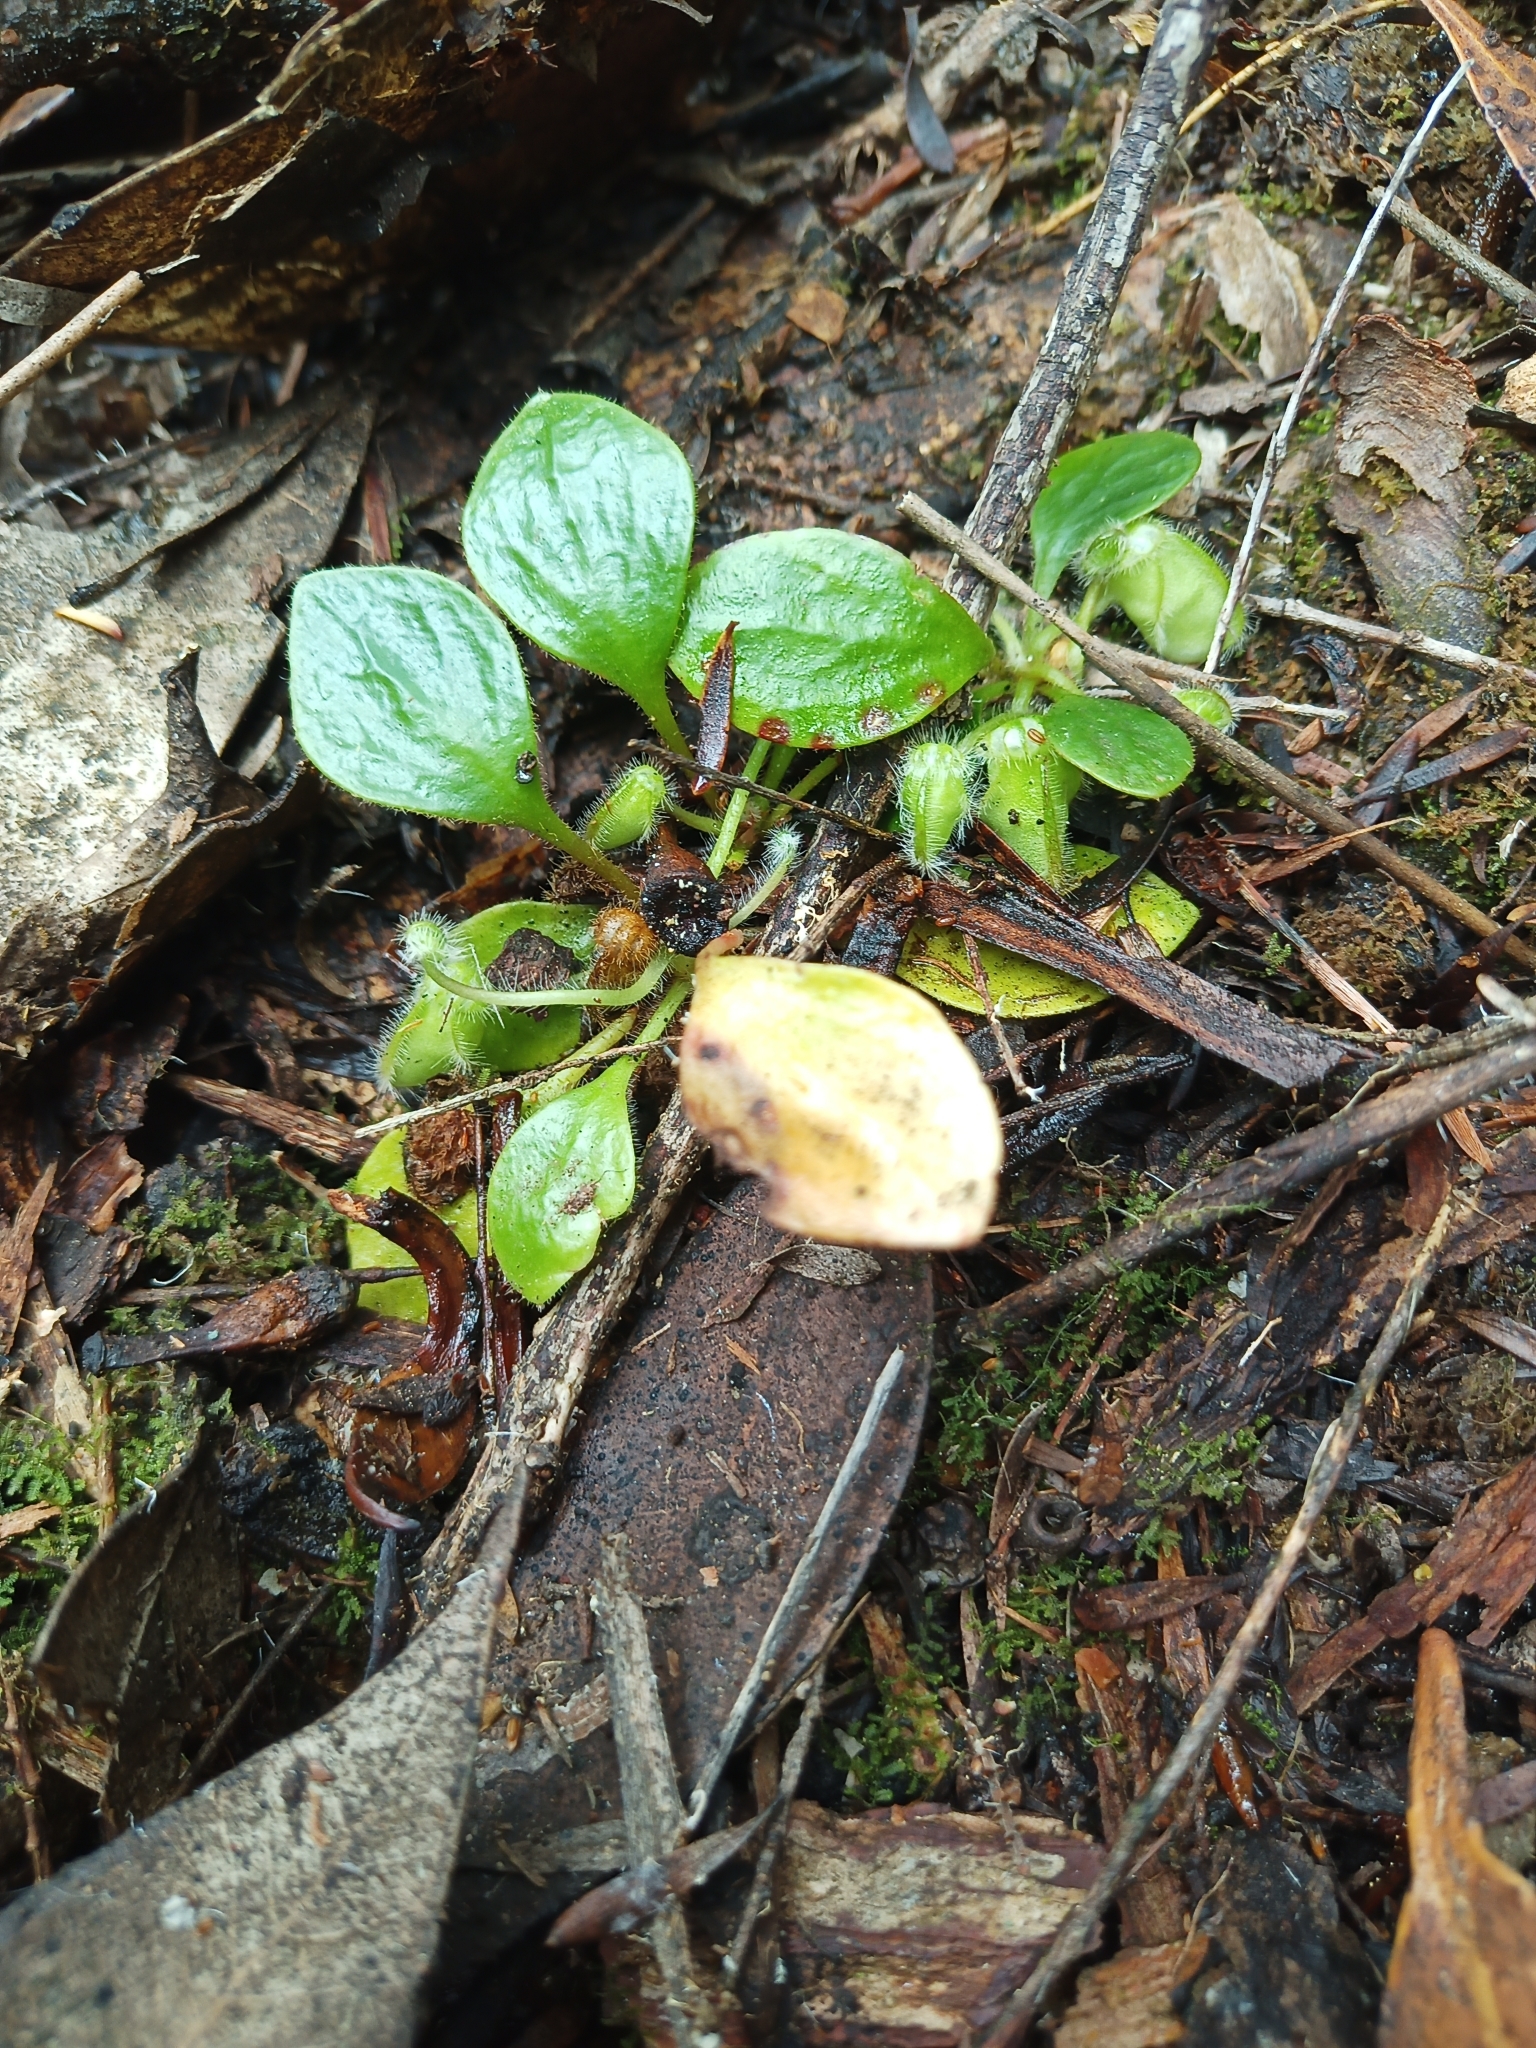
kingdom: Plantae
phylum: Tracheophyta
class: Magnoliopsida
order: Oxalidales
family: Cephalotaceae
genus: Cephalotus
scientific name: Cephalotus follicularis
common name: Australian pitcher plant
